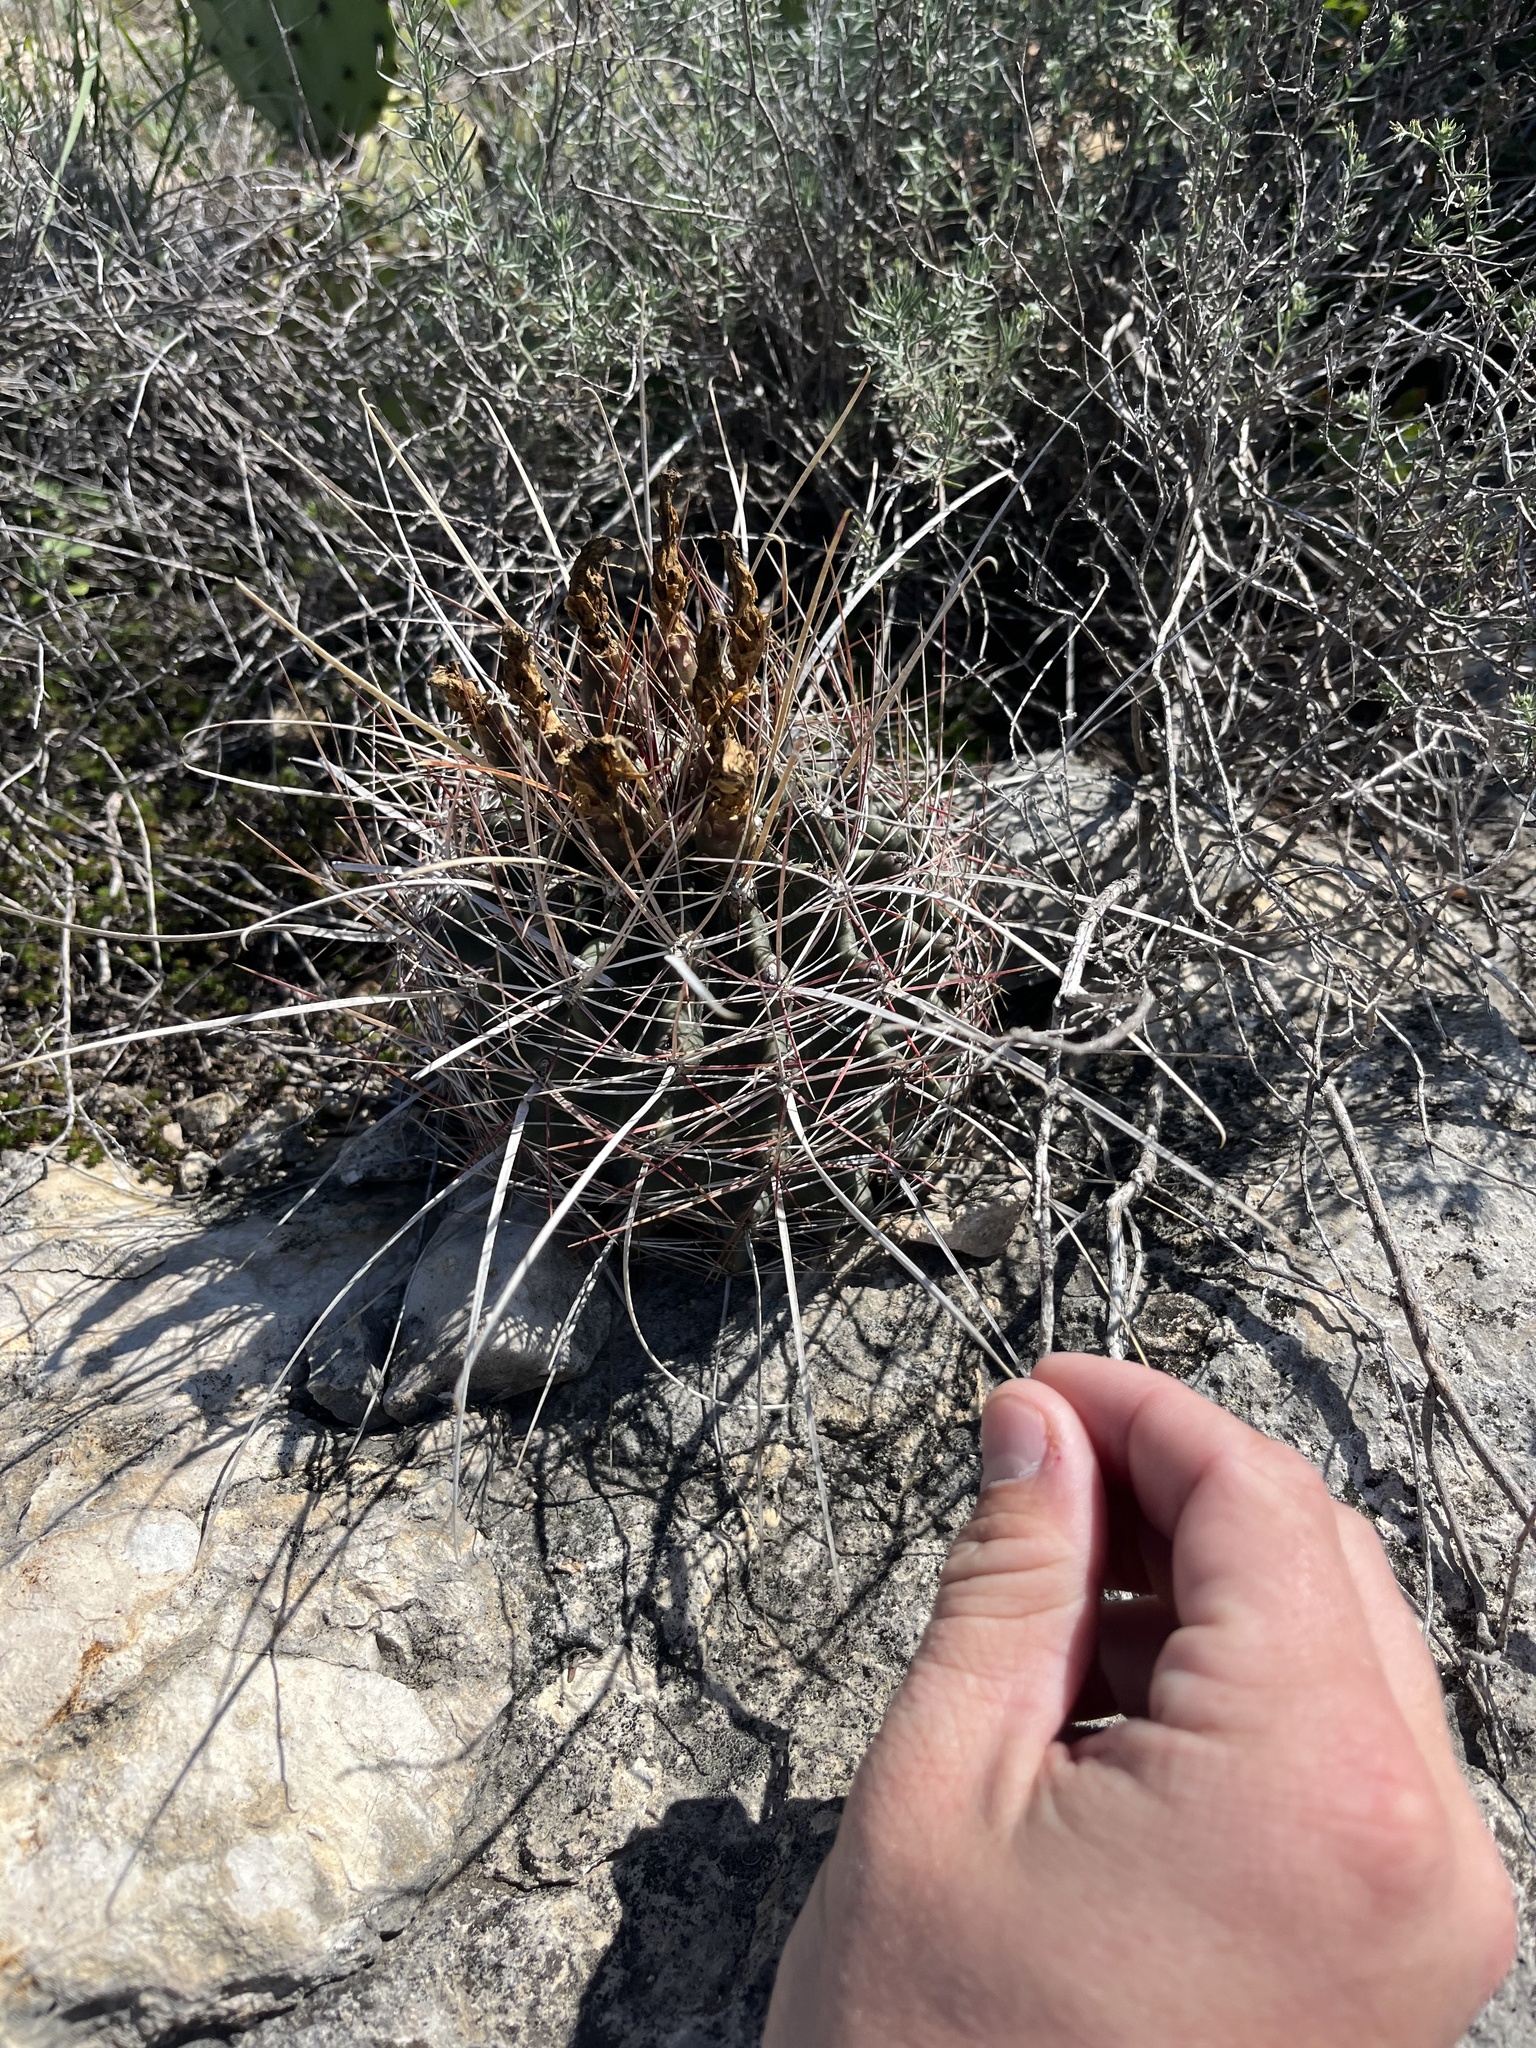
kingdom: Plantae
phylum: Tracheophyta
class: Magnoliopsida
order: Caryophyllales
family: Cactaceae
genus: Bisnaga
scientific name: Bisnaga hamatacantha
